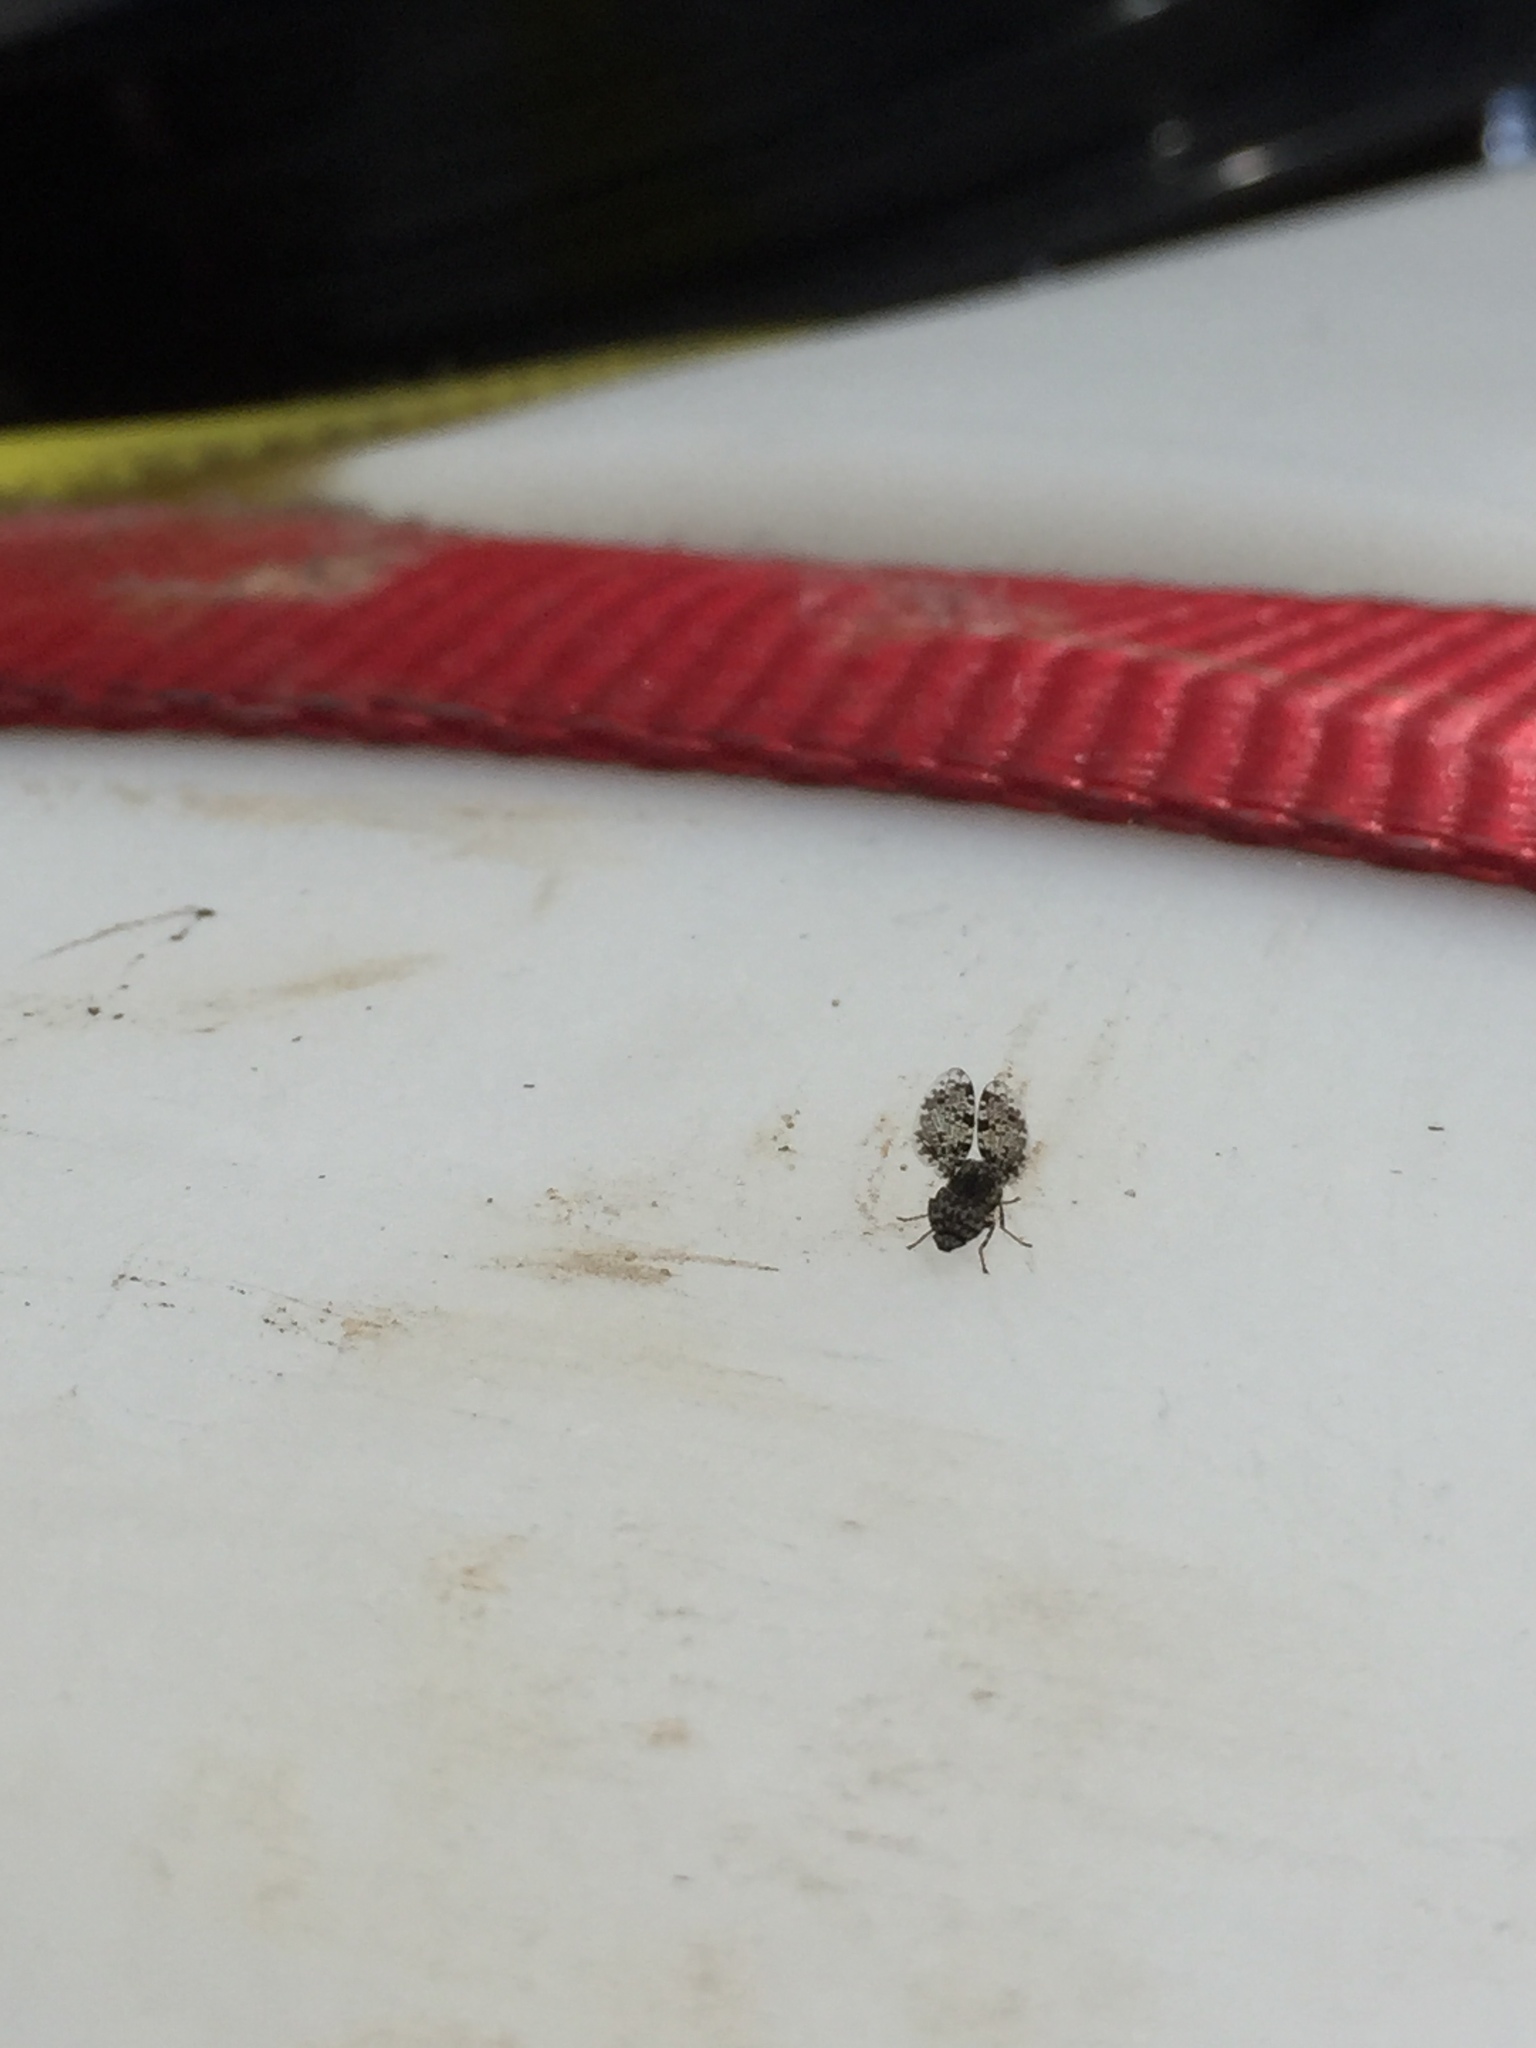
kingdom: Animalia
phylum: Arthropoda
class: Insecta
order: Diptera
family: Ulidiidae
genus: Callopistromyia
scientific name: Callopistromyia annulipes
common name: Peacock fly
